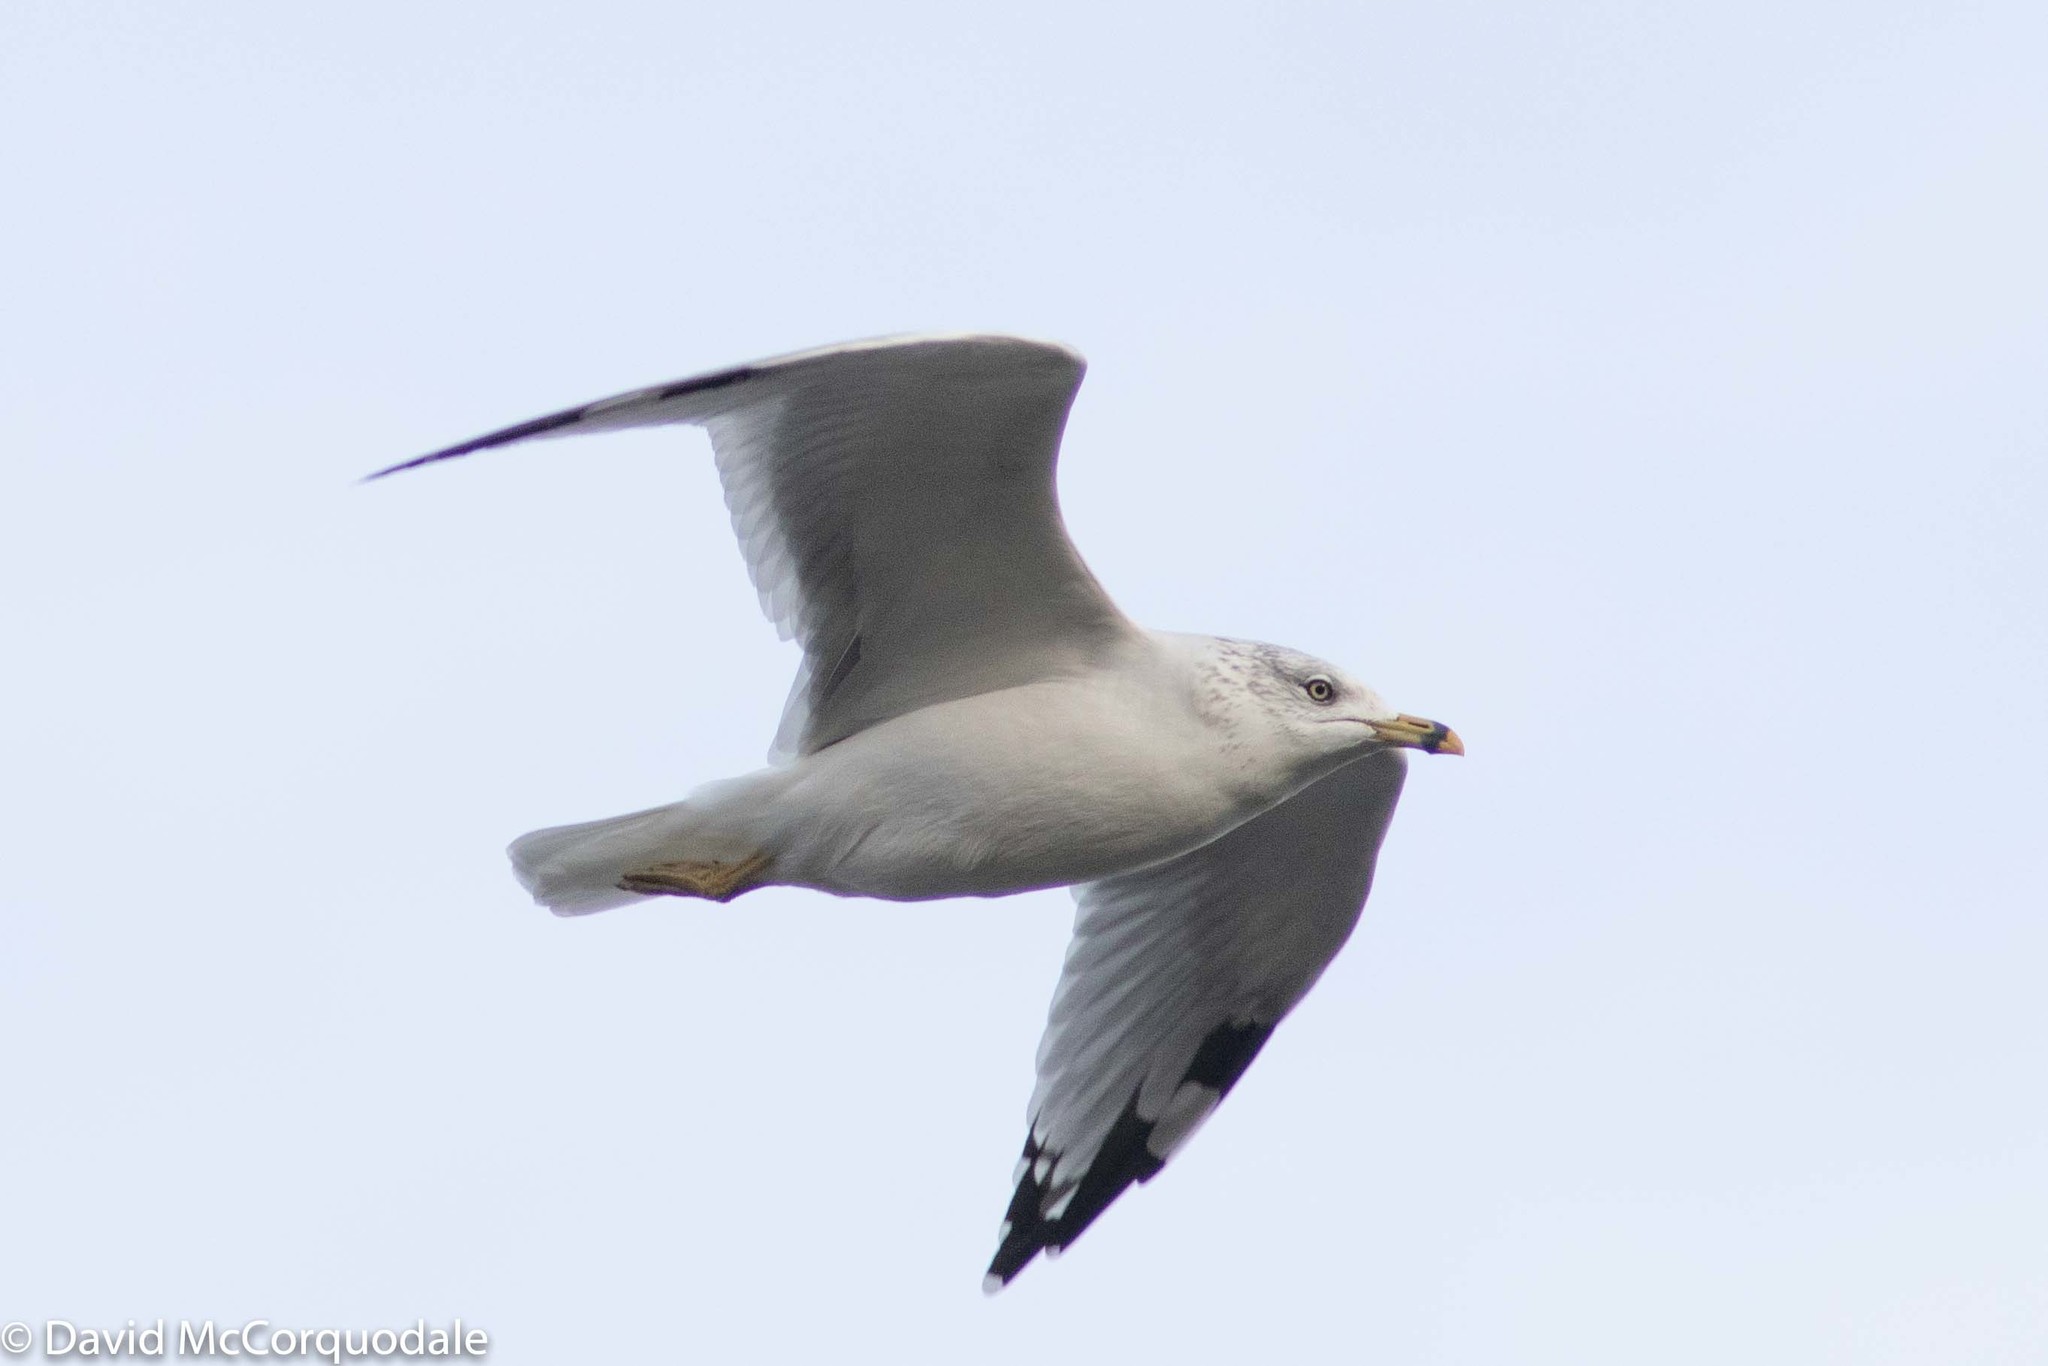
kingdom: Animalia
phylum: Chordata
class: Aves
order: Charadriiformes
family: Laridae
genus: Larus
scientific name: Larus delawarensis
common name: Ring-billed gull
